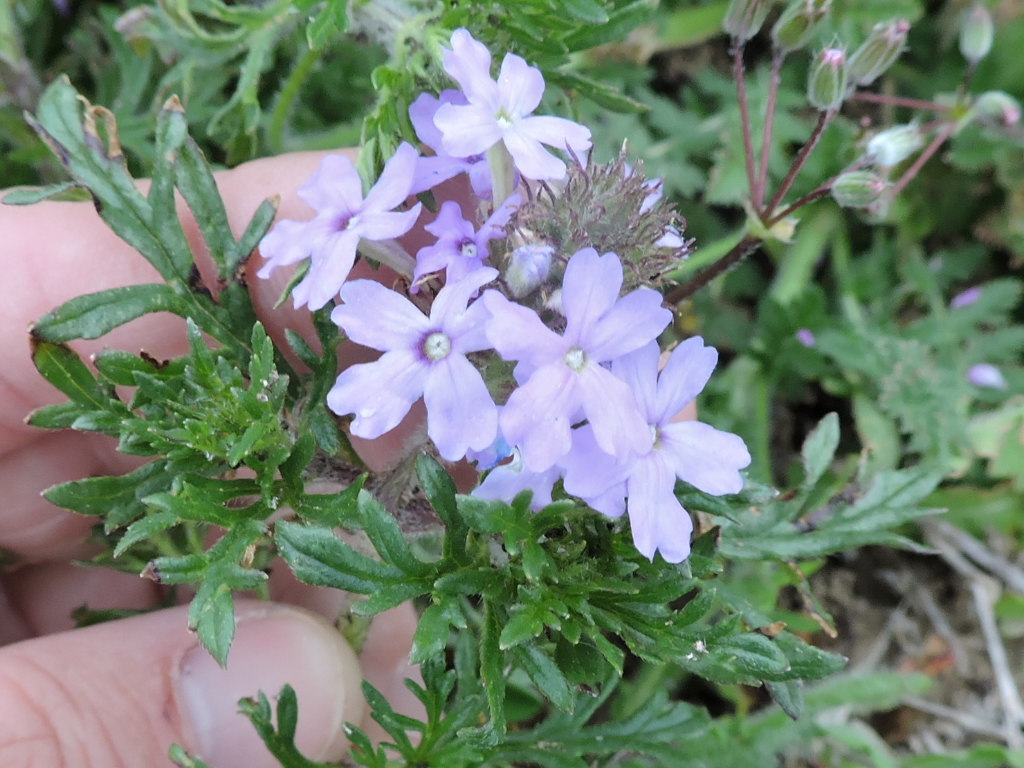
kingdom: Plantae
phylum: Tracheophyta
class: Magnoliopsida
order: Lamiales
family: Verbenaceae
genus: Verbena
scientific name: Verbena bipinnatifida
